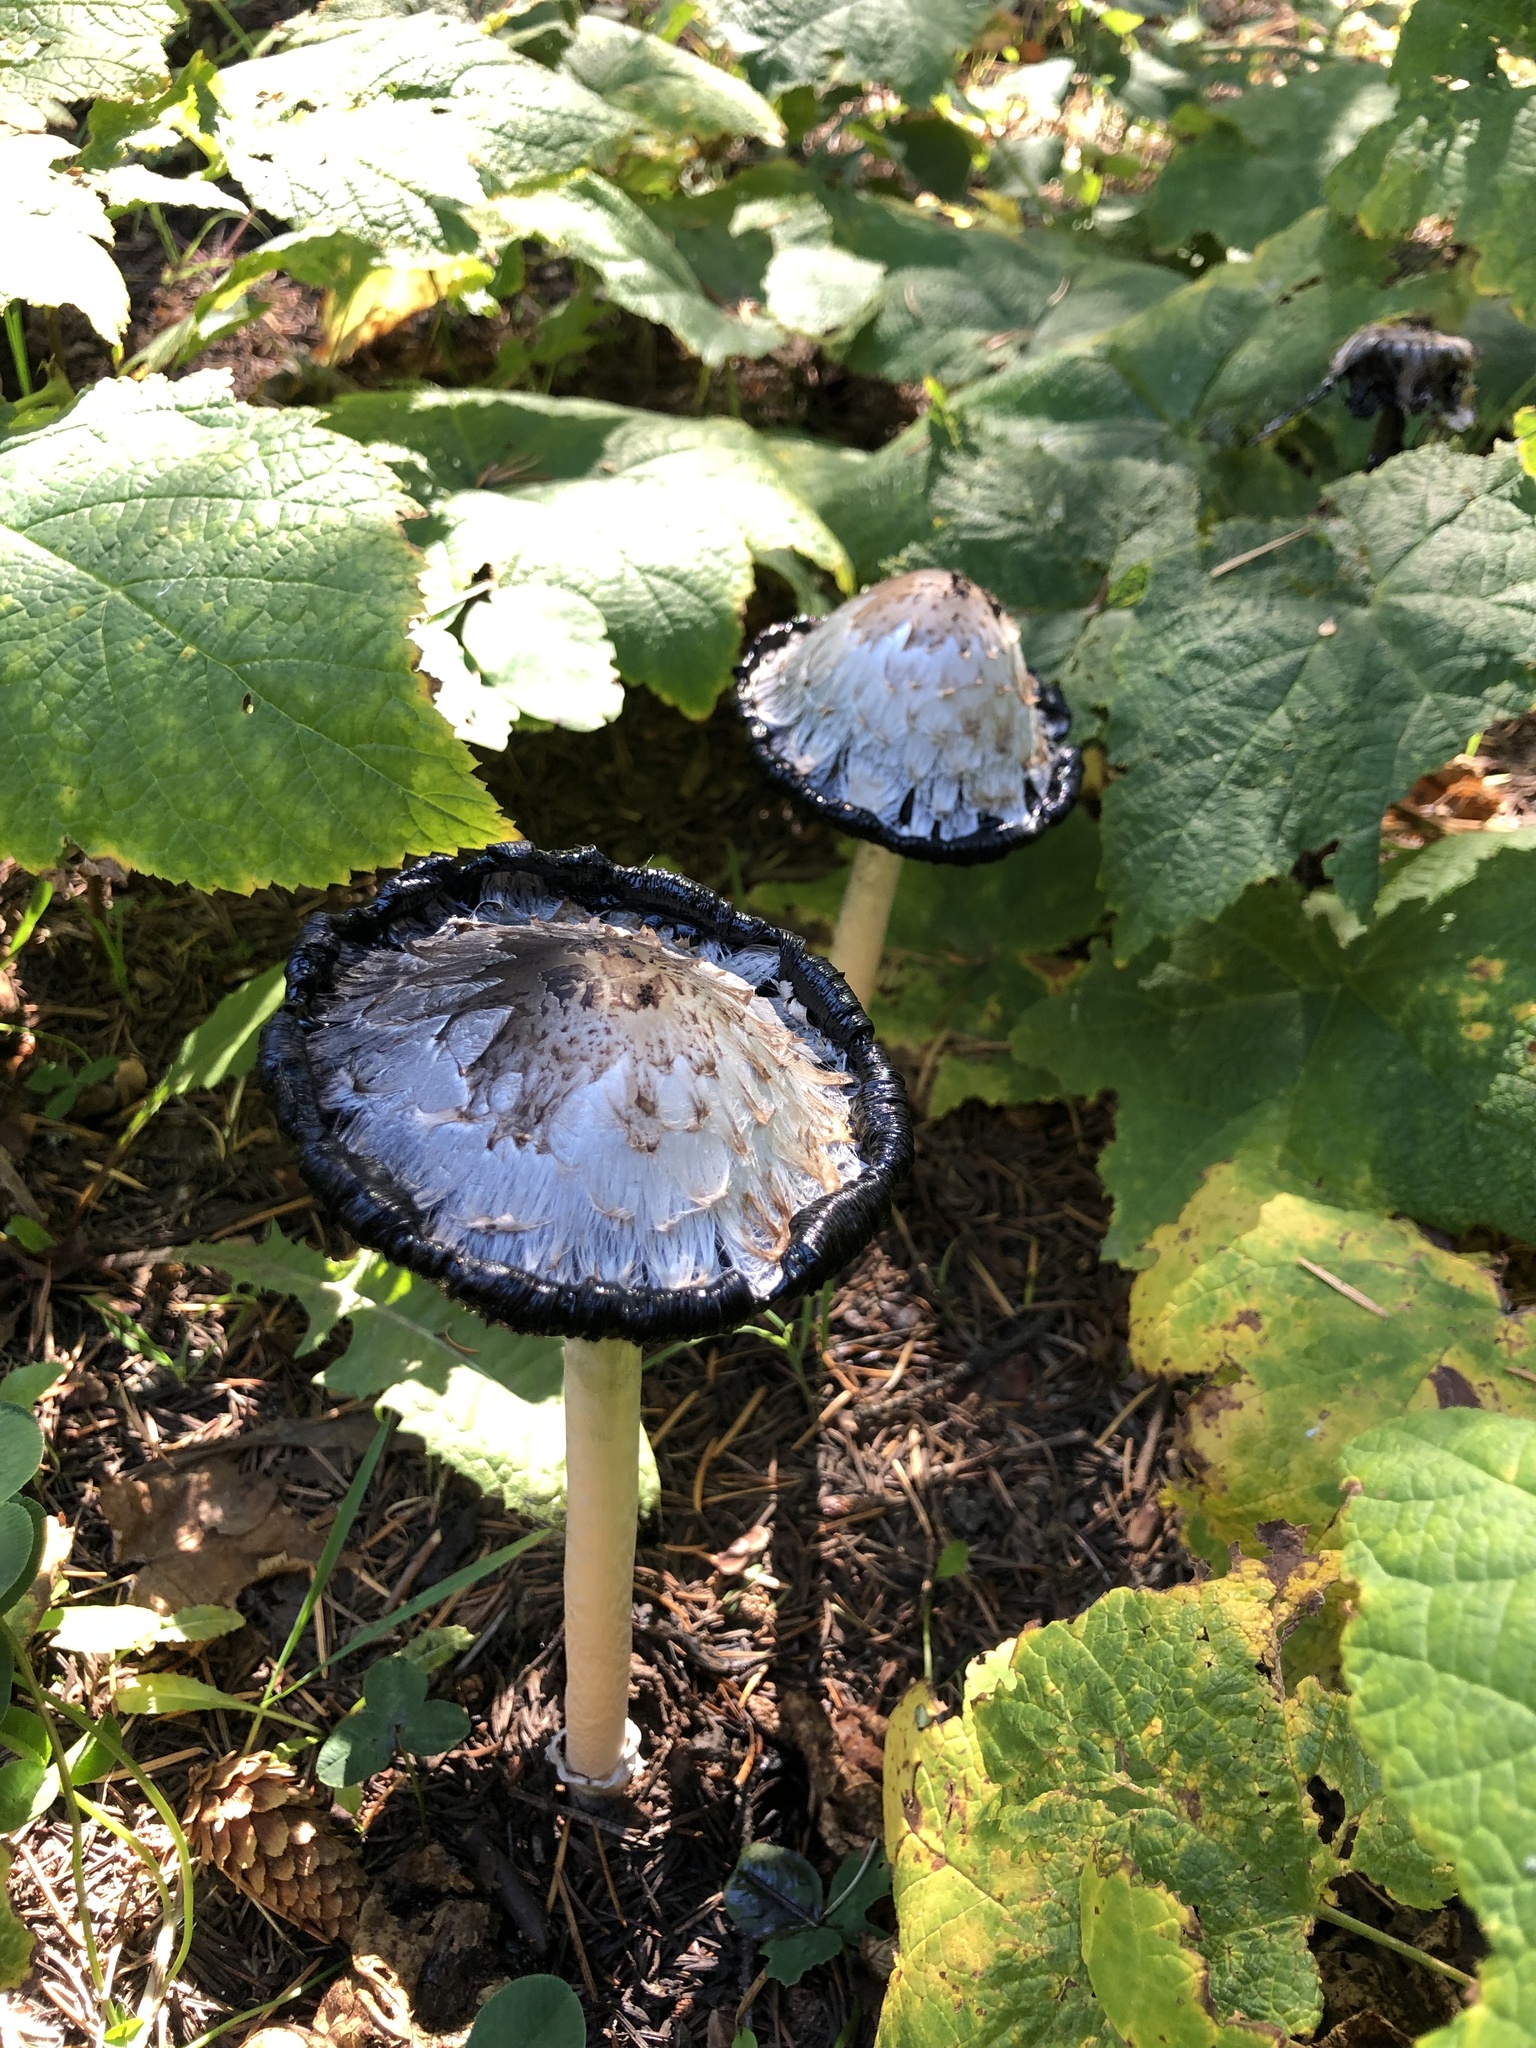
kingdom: Fungi
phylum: Basidiomycota
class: Agaricomycetes
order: Agaricales
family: Agaricaceae
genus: Coprinus
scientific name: Coprinus comatus
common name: Lawyer's wig
